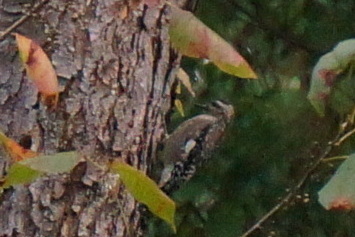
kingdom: Animalia
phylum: Chordata
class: Aves
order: Piciformes
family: Picidae
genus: Sphyrapicus
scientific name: Sphyrapicus varius
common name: Yellow-bellied sapsucker
